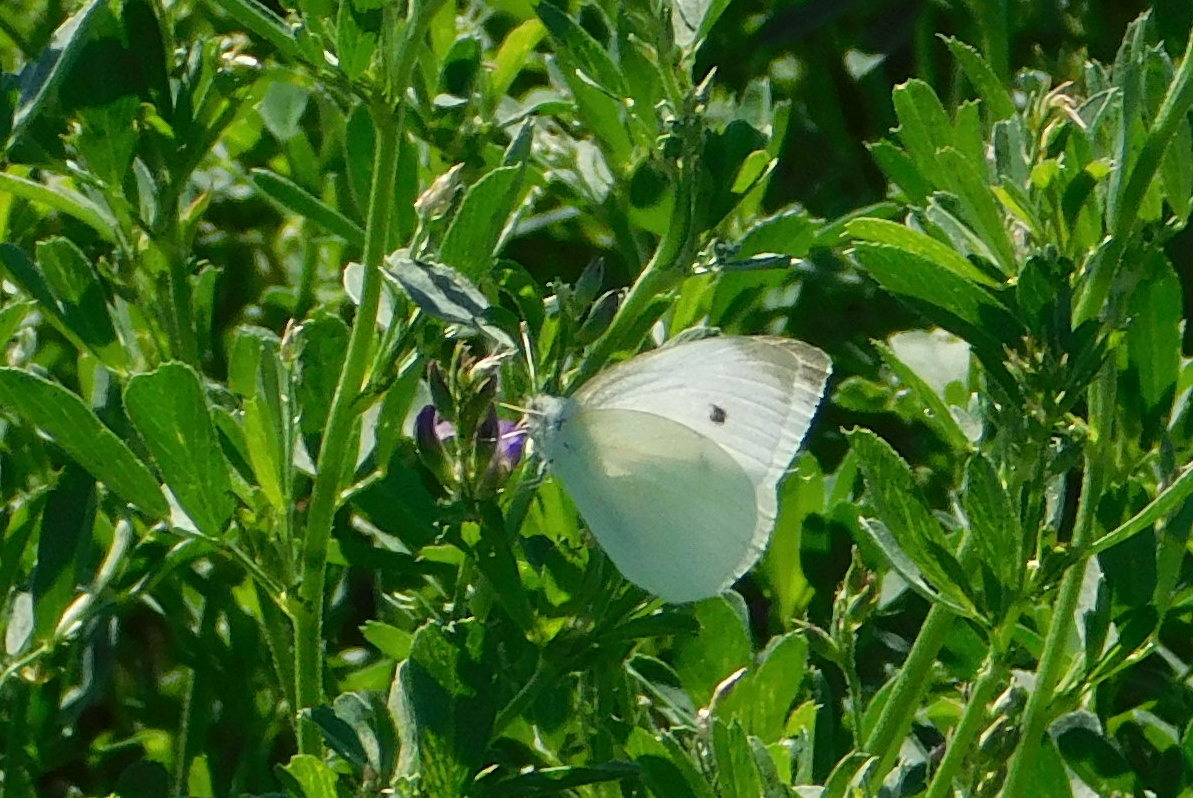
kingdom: Animalia
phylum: Arthropoda
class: Insecta
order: Lepidoptera
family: Pieridae
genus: Pieris
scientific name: Pieris rapae
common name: Small white
